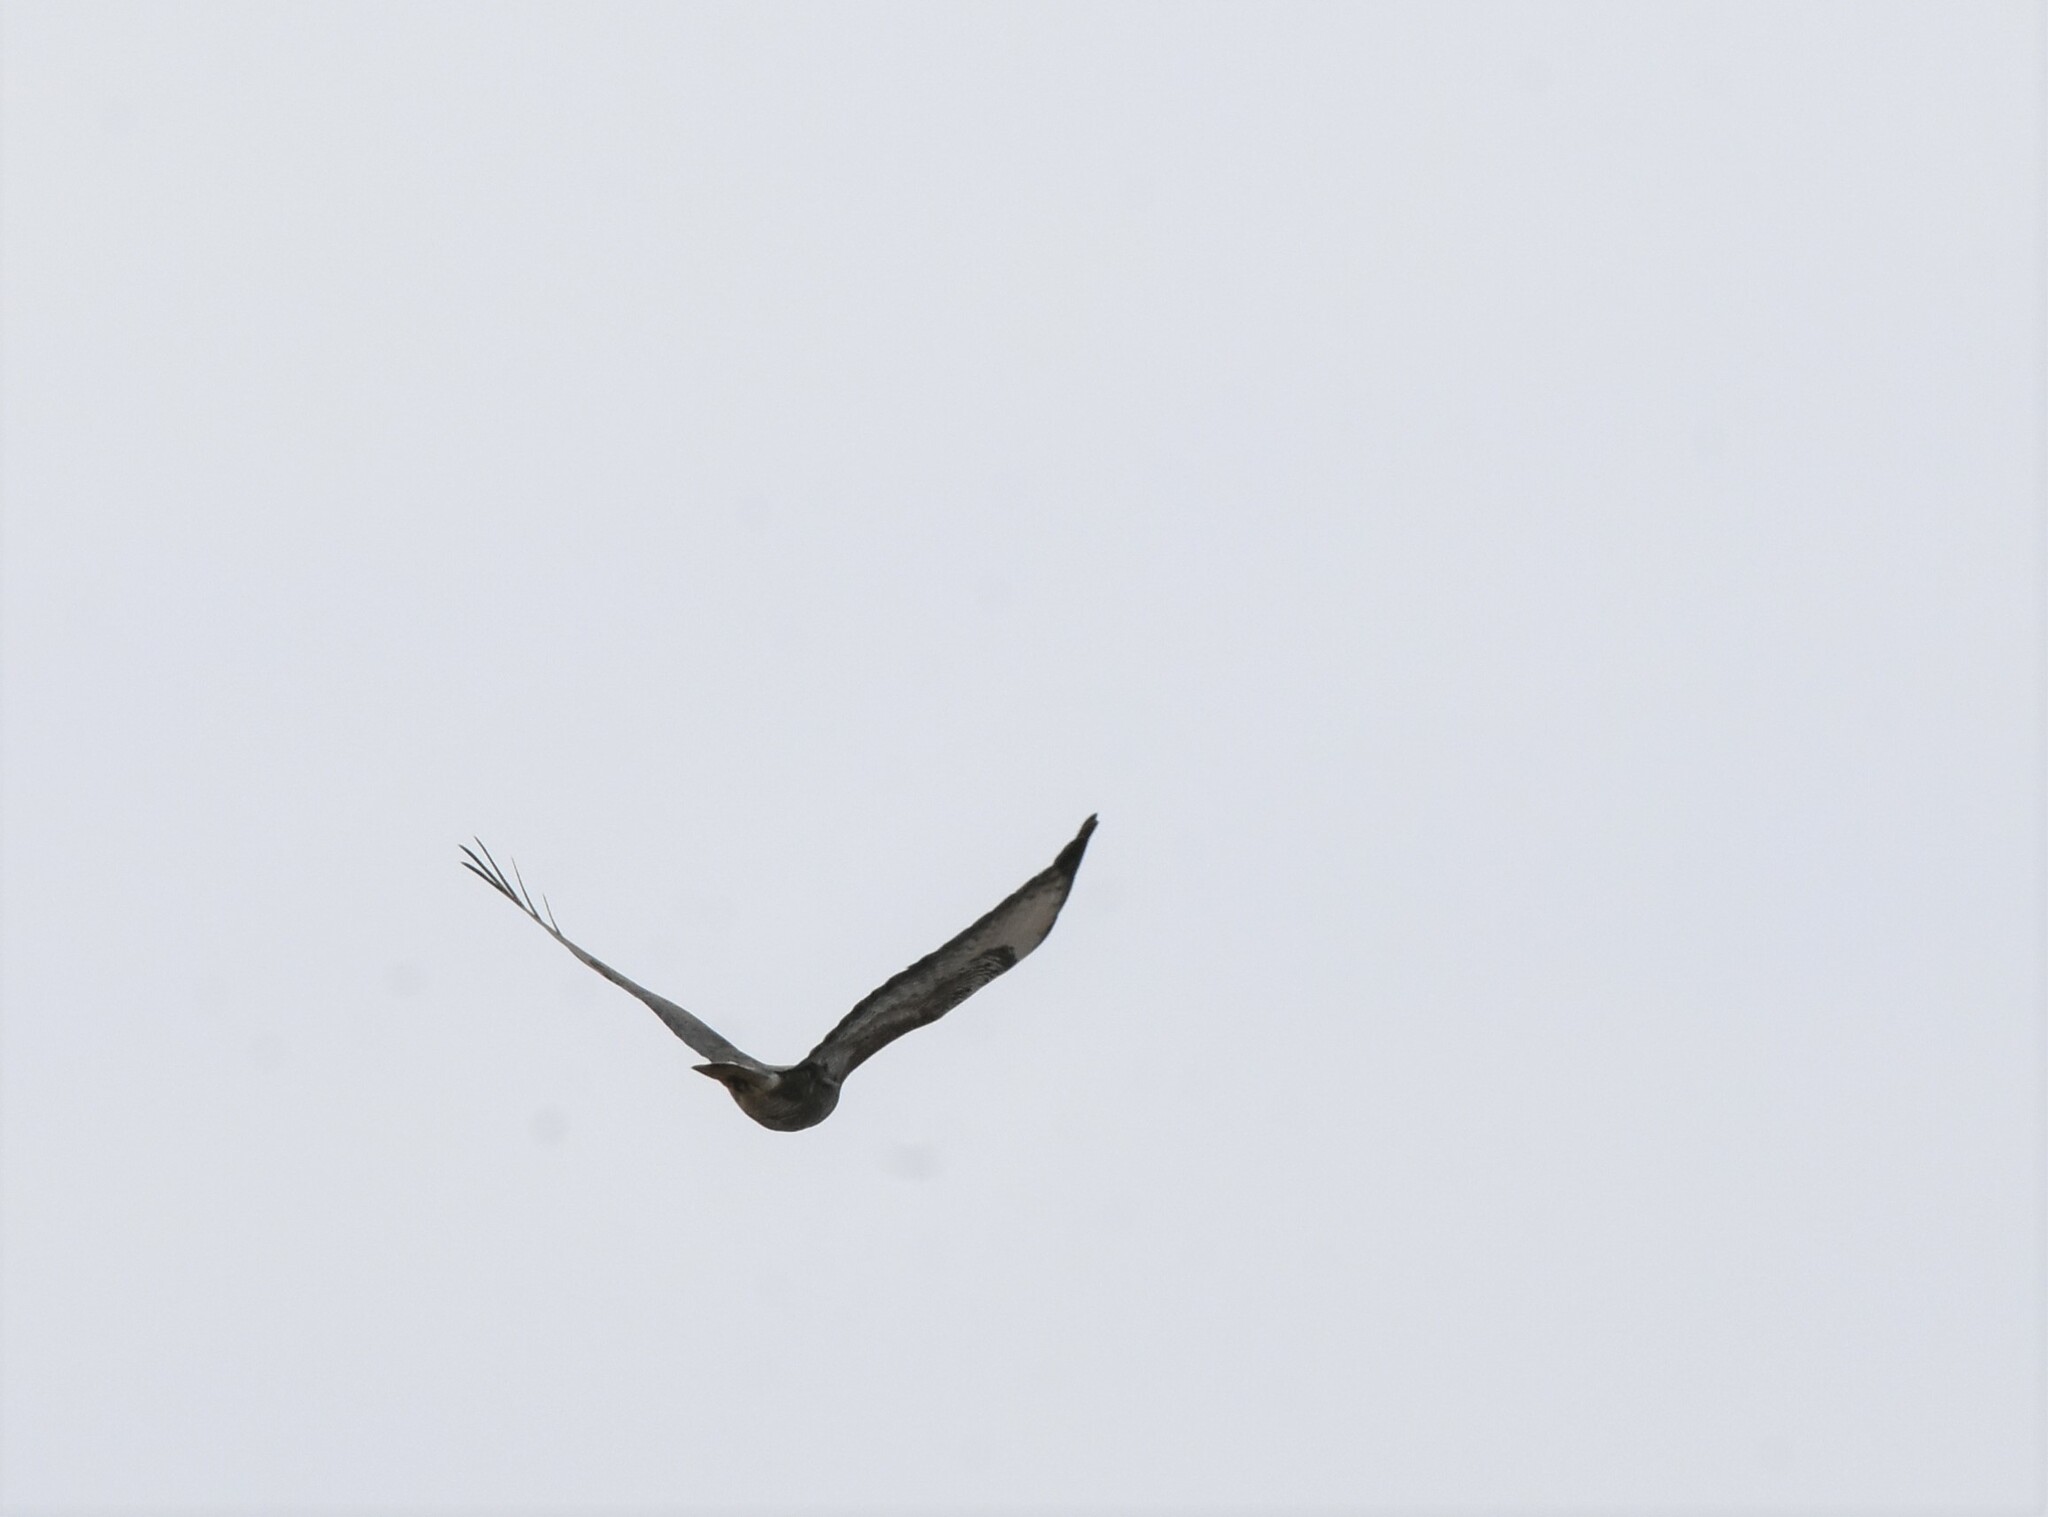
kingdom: Animalia
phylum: Chordata
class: Aves
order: Accipitriformes
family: Accipitridae
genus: Buteo
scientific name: Buteo buteo
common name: Common buzzard
